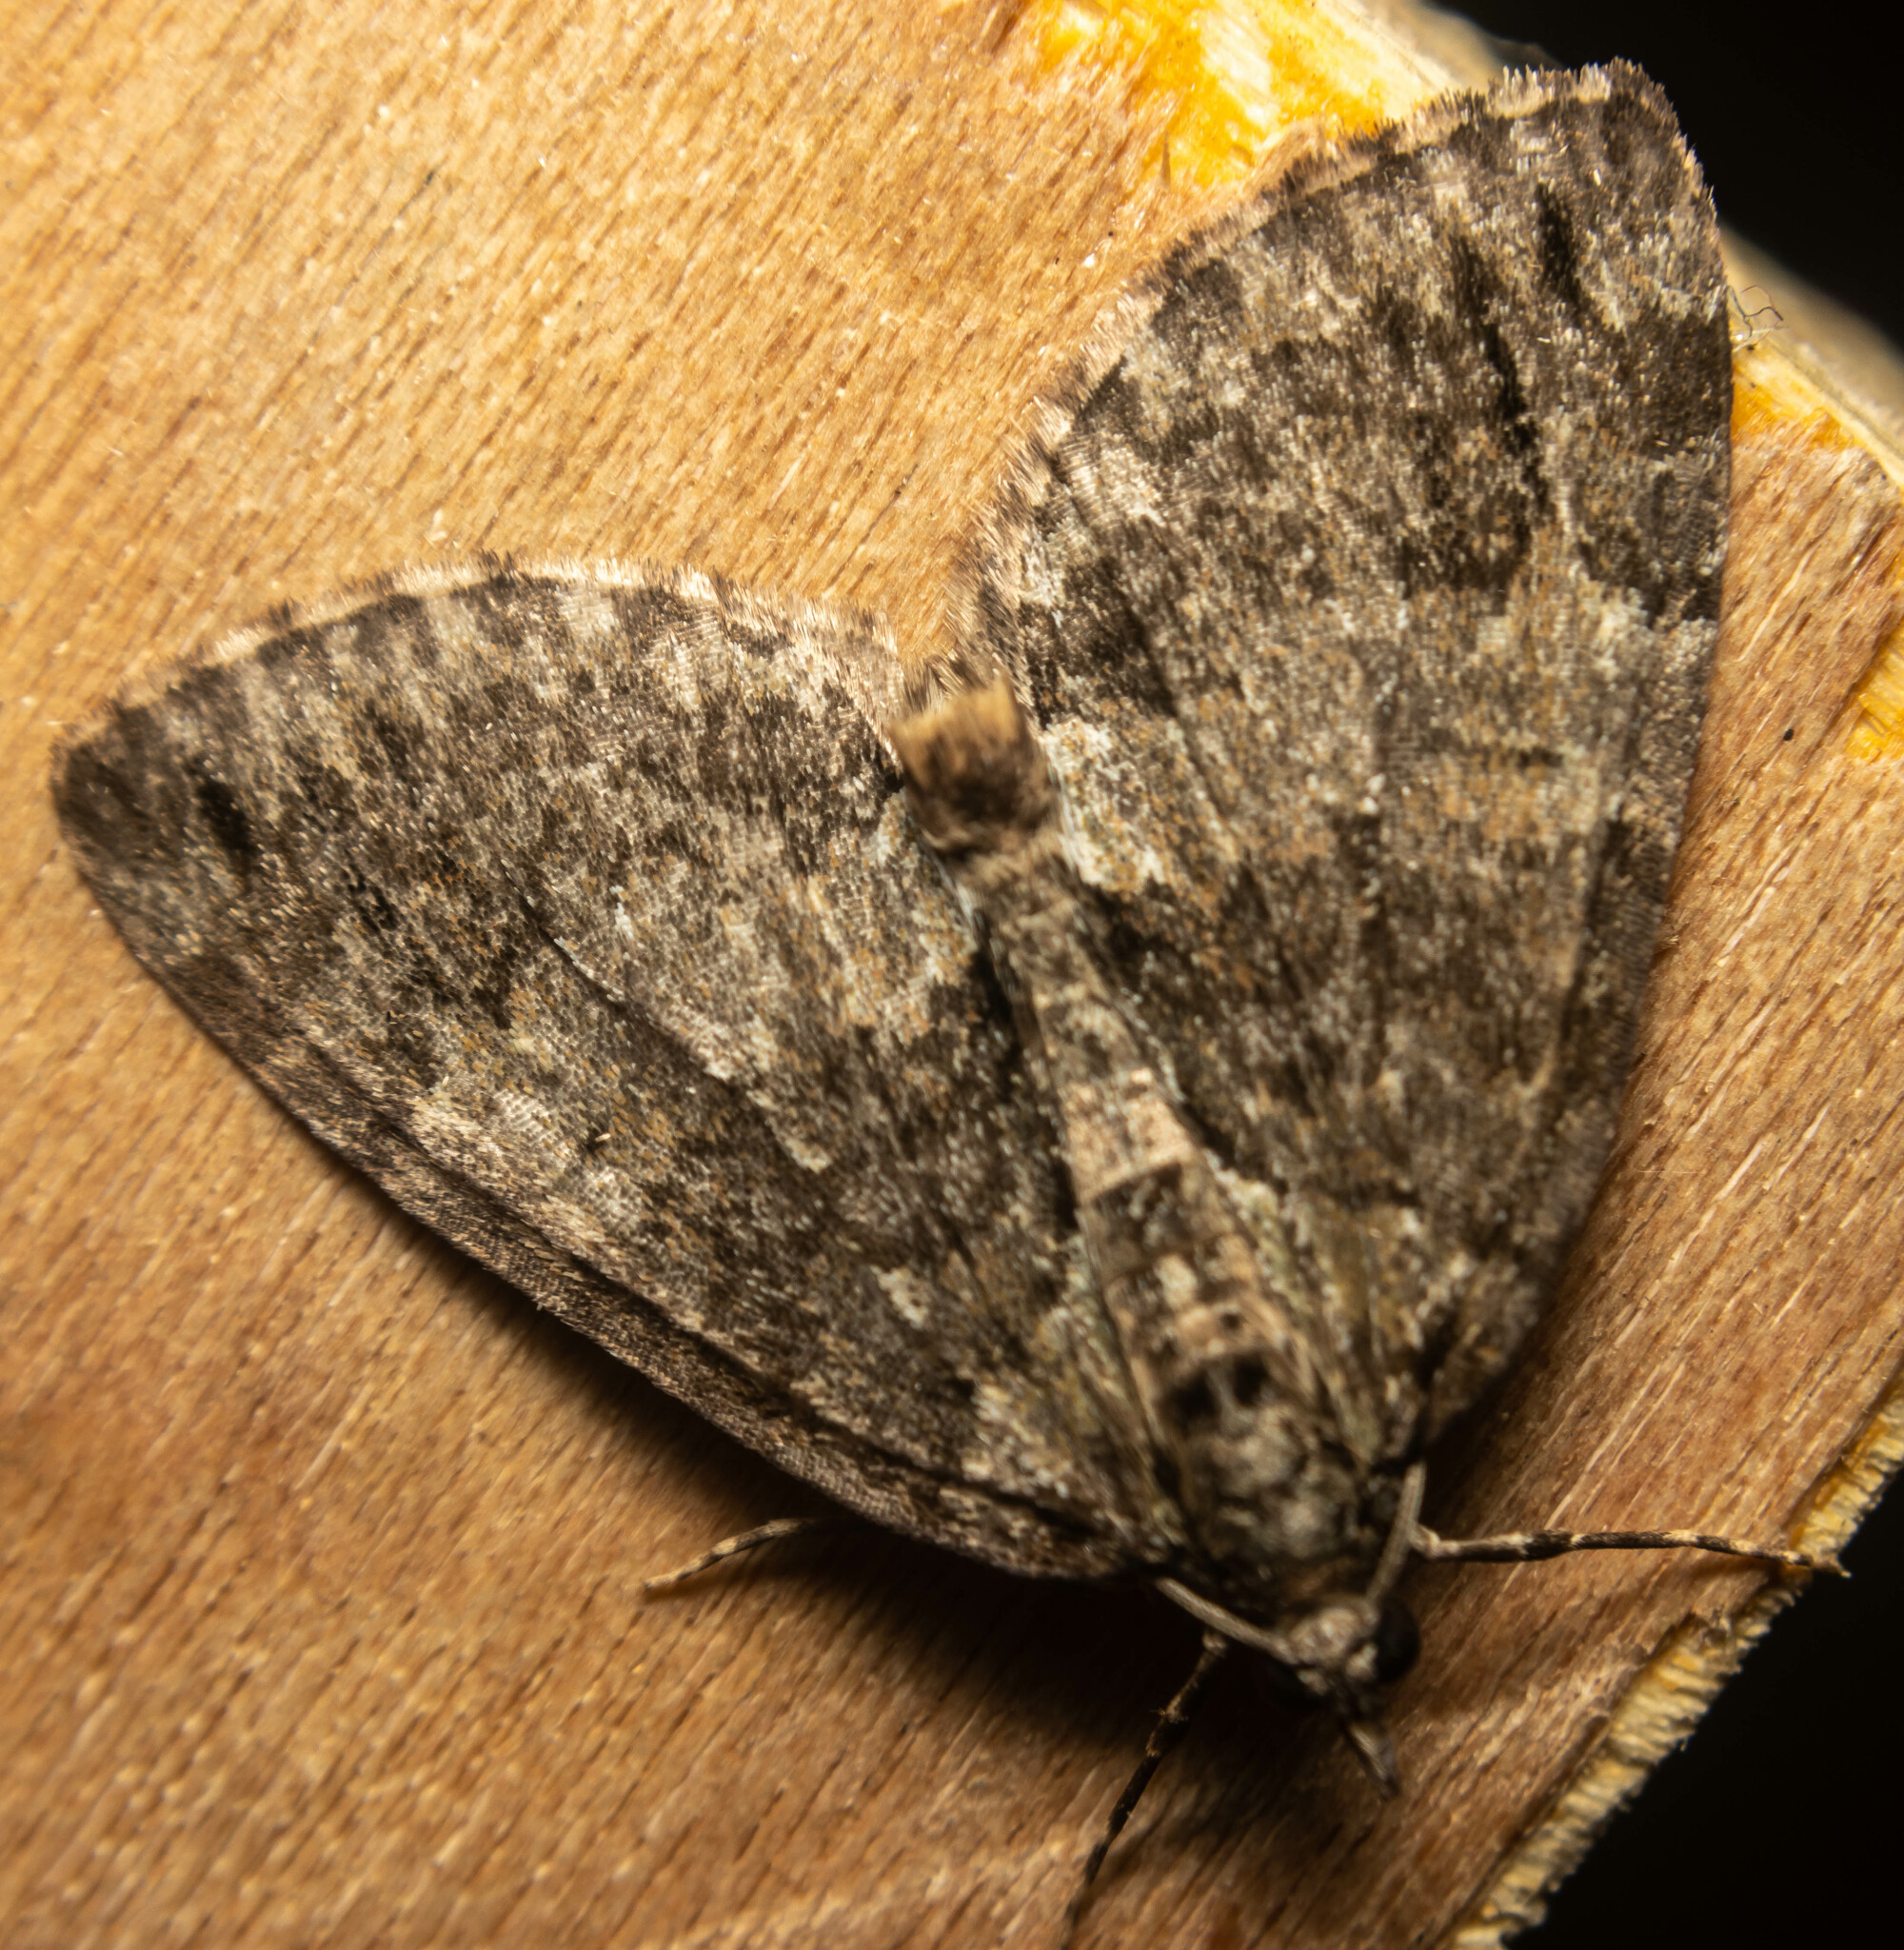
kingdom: Animalia
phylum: Arthropoda
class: Insecta
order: Lepidoptera
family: Geometridae
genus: Hydriomena
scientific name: Hydriomena impluviata
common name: May highflyer
